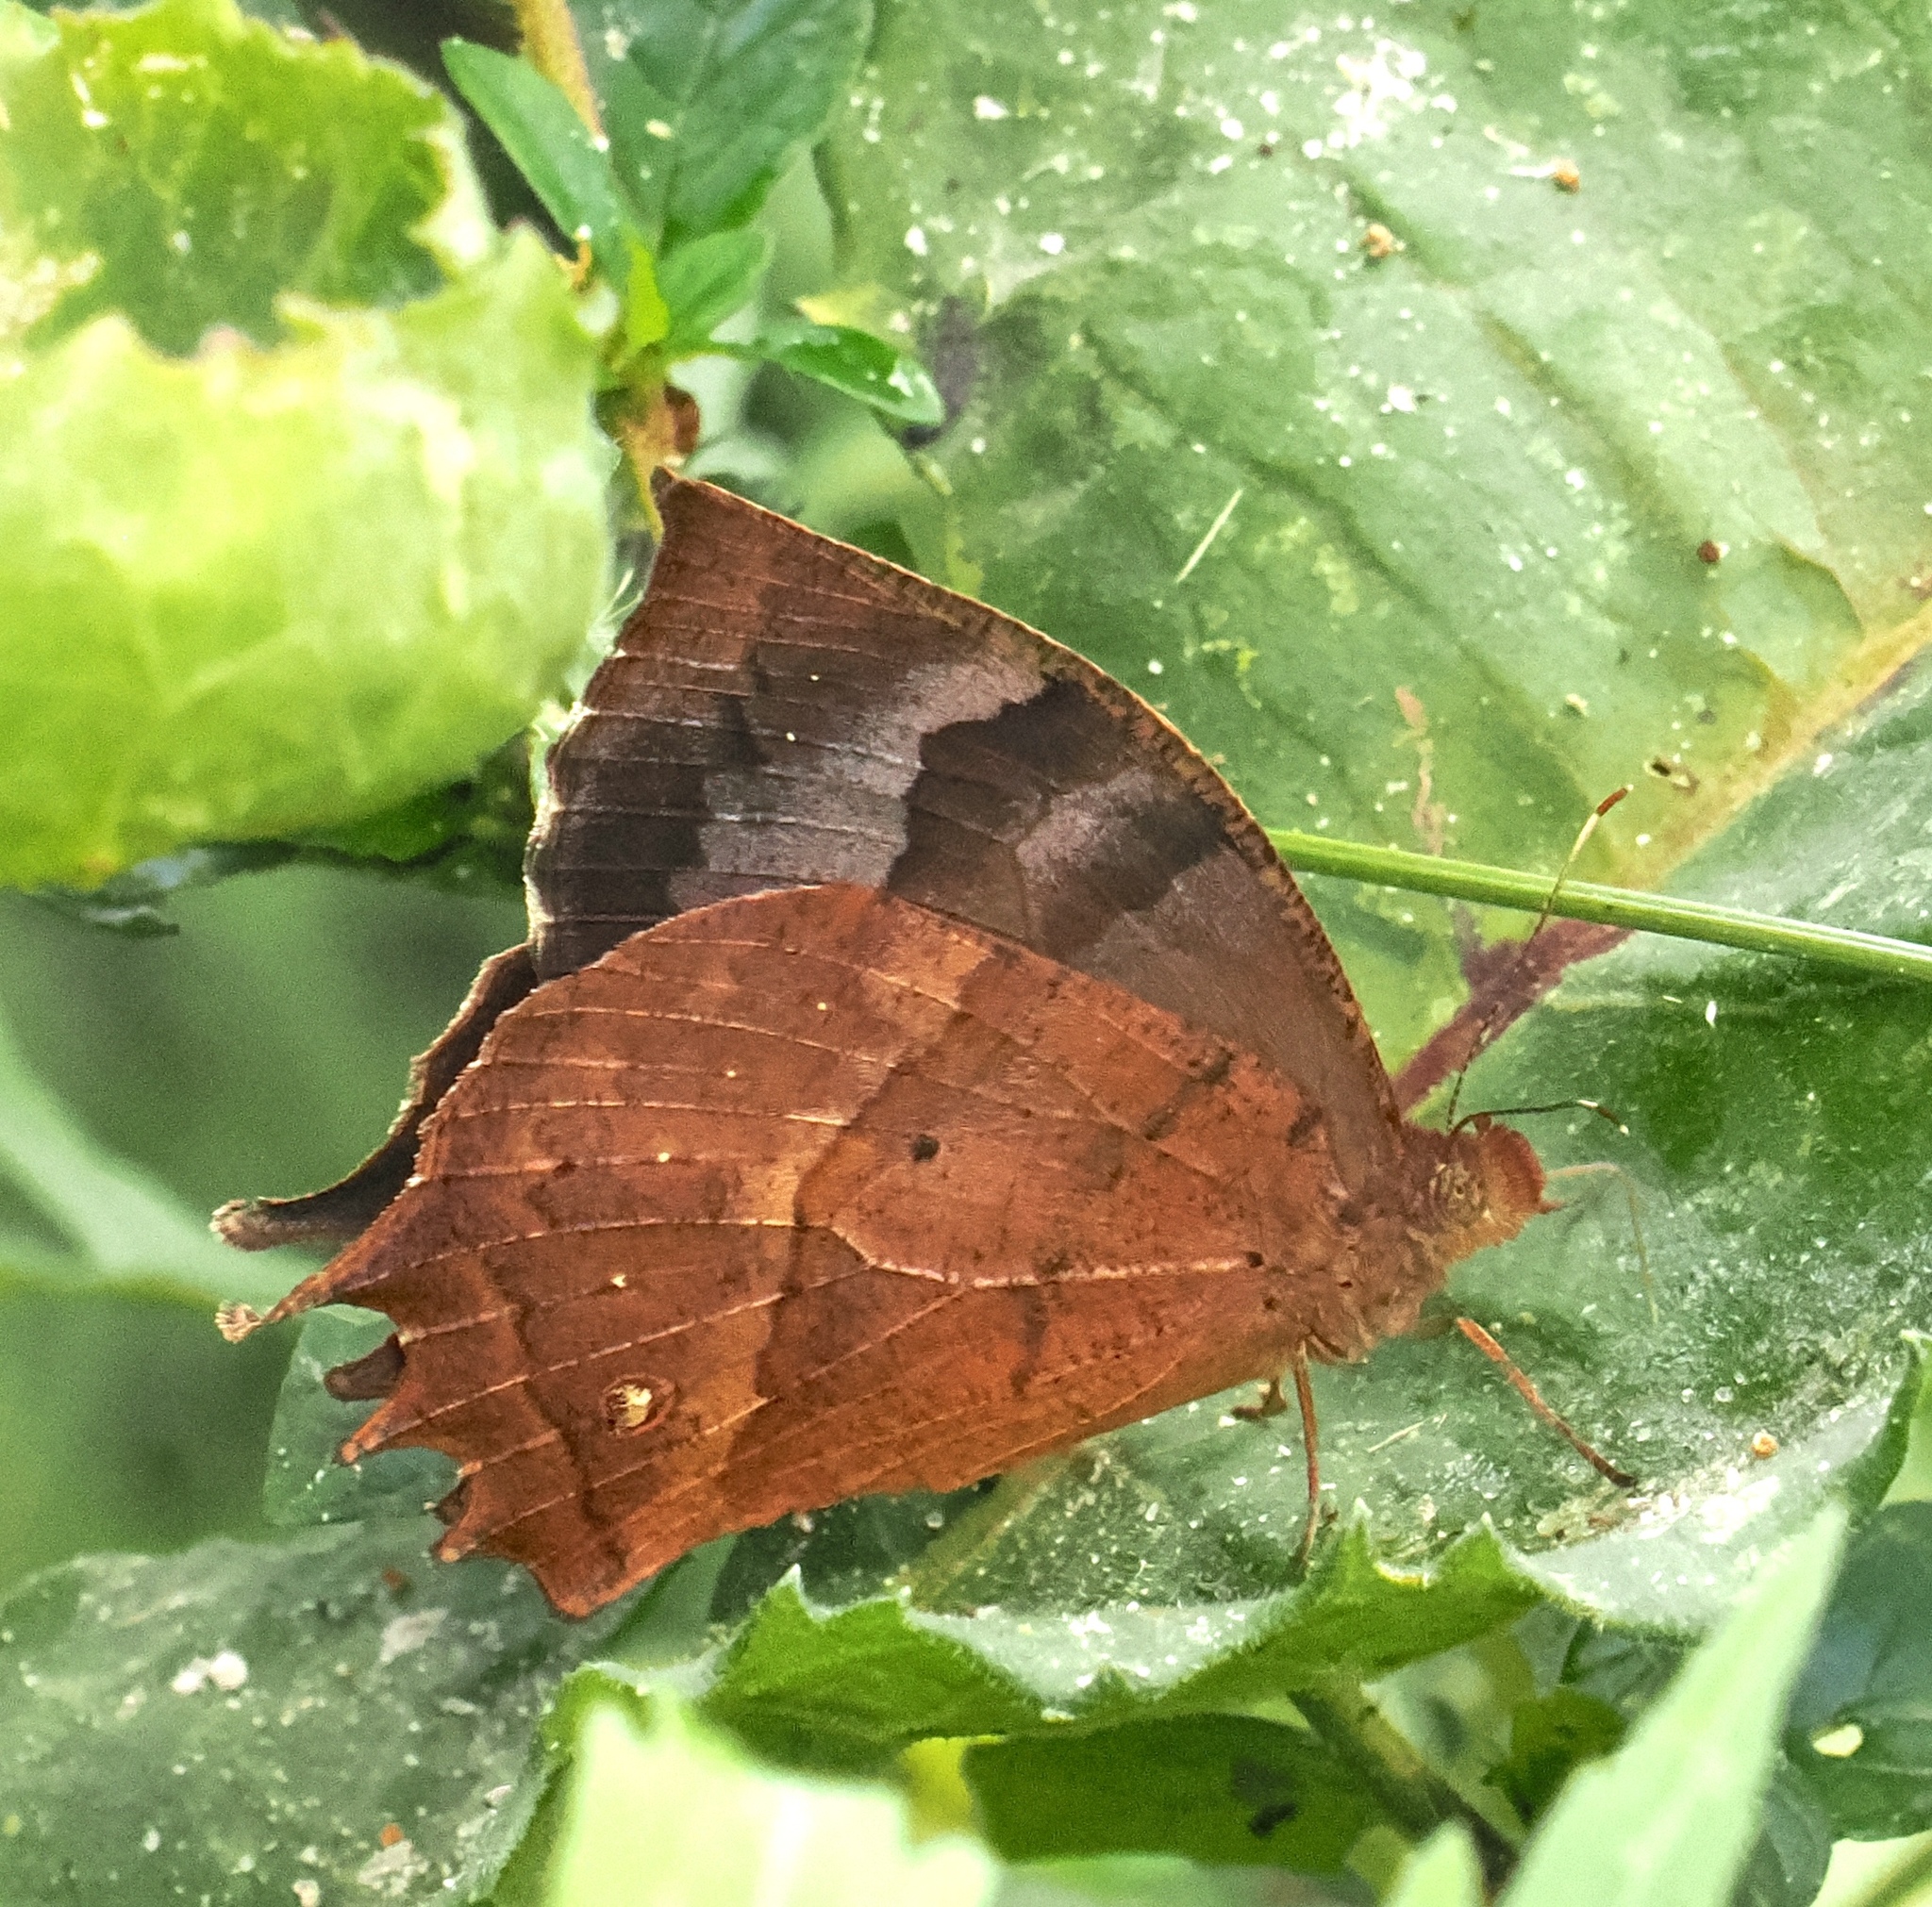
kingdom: Animalia
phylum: Arthropoda
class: Insecta
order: Lepidoptera
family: Nymphalidae
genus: Taguaiba
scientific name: Taguaiba
